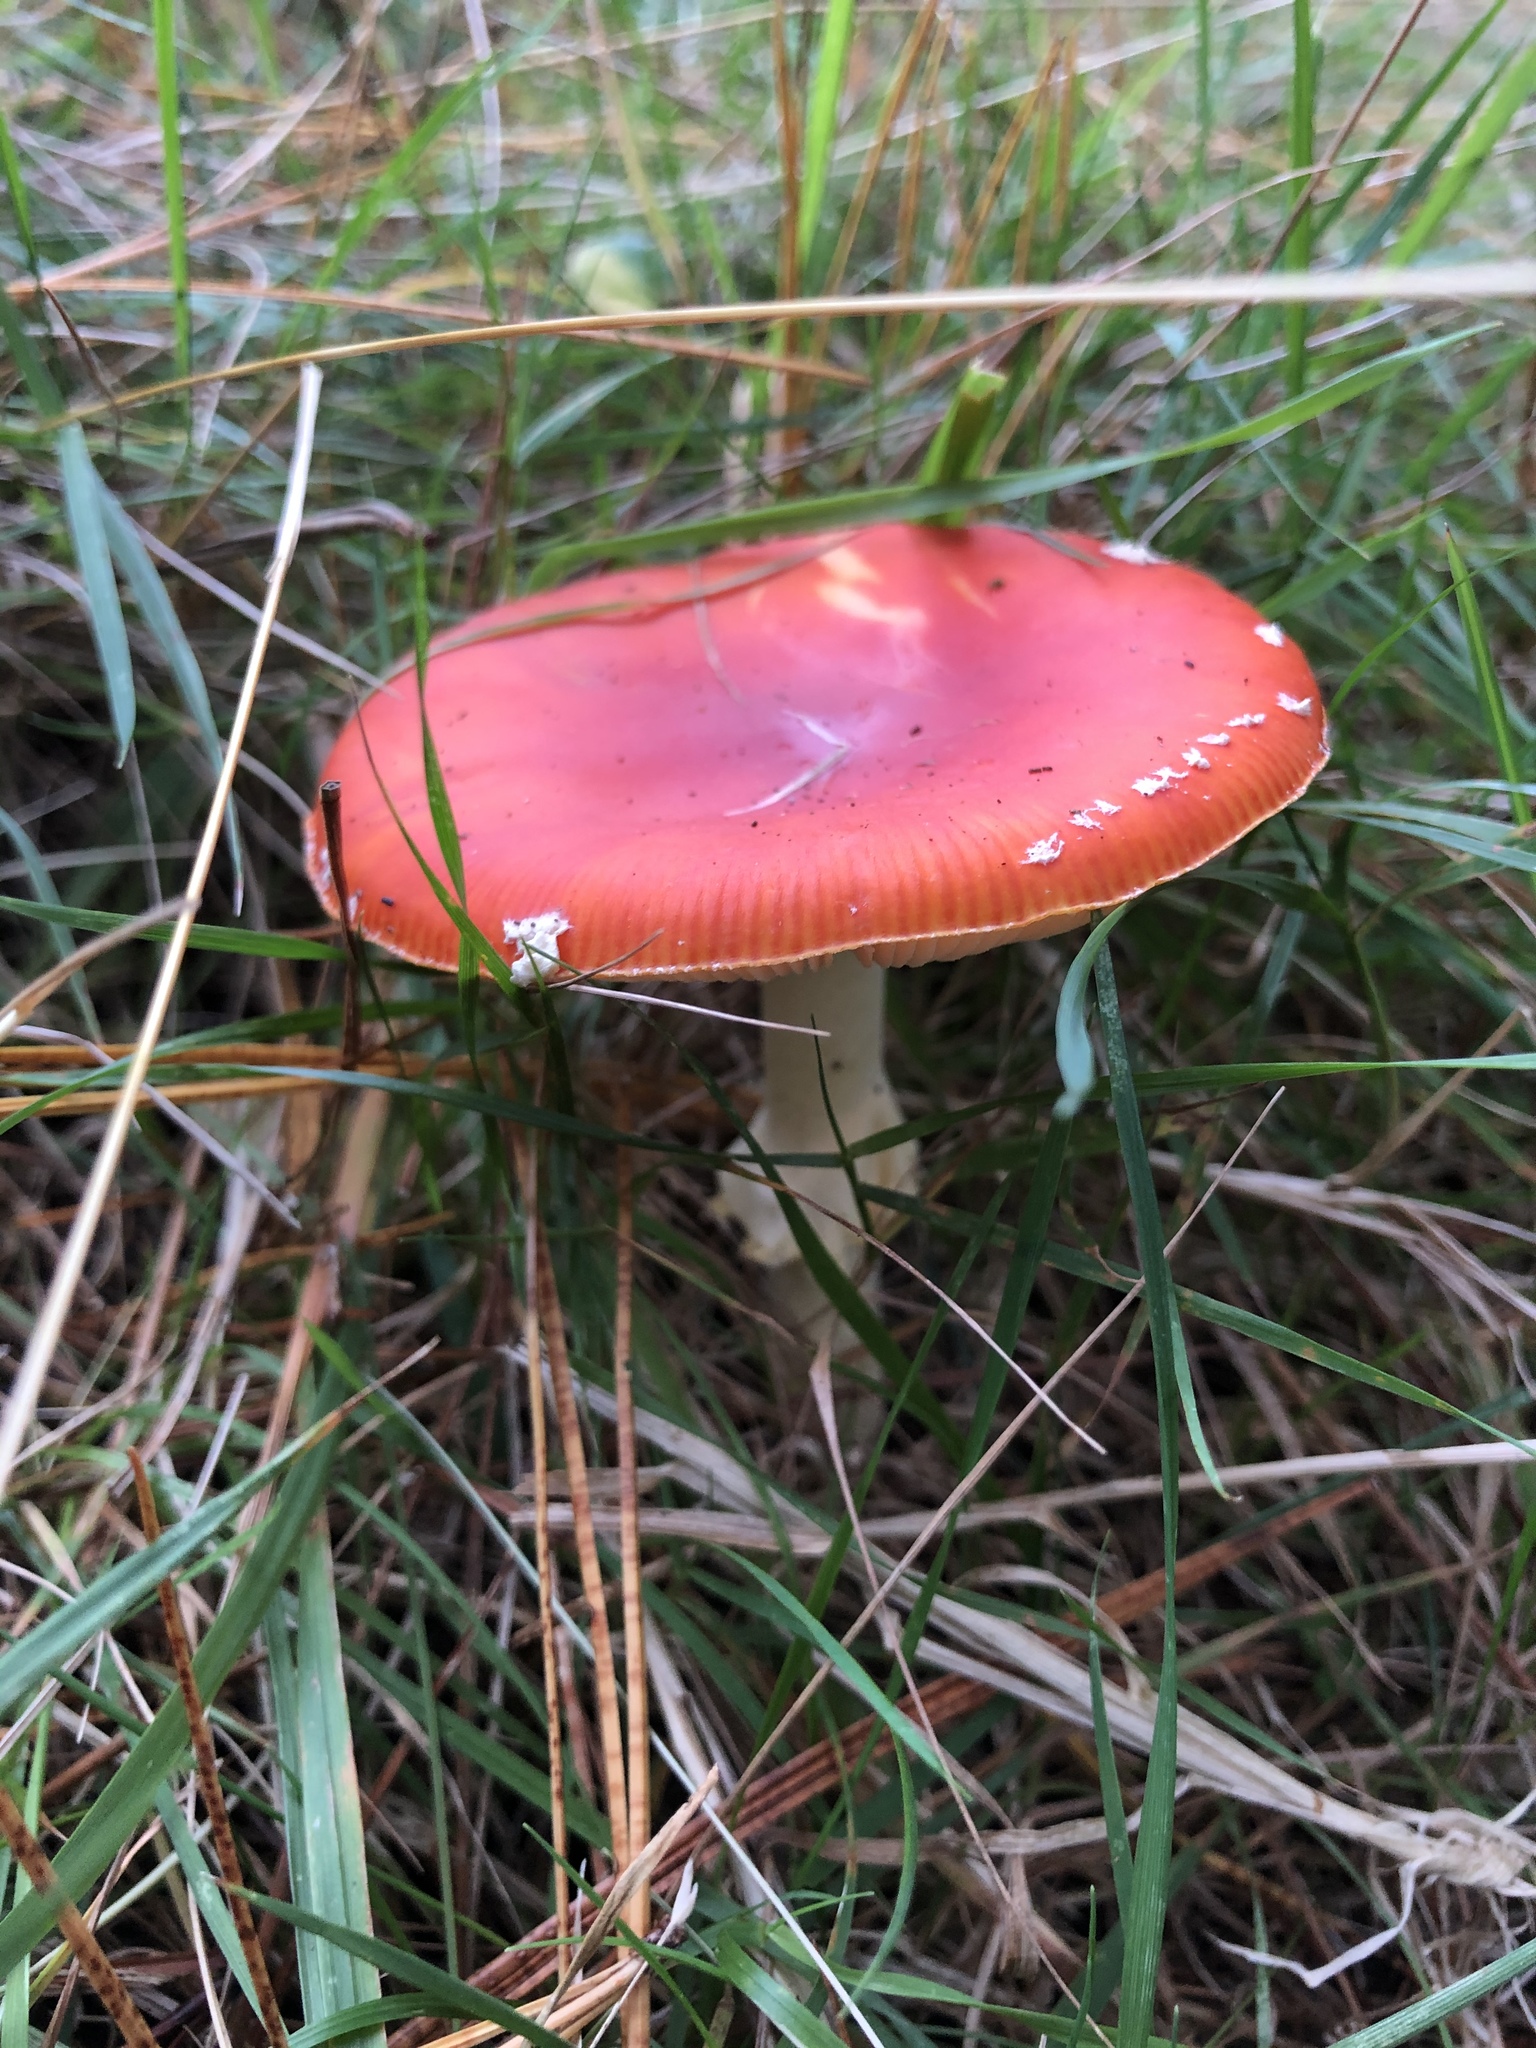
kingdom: Fungi
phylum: Basidiomycota
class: Agaricomycetes
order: Agaricales
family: Amanitaceae
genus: Amanita
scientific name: Amanita muscaria
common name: Fly agaric
